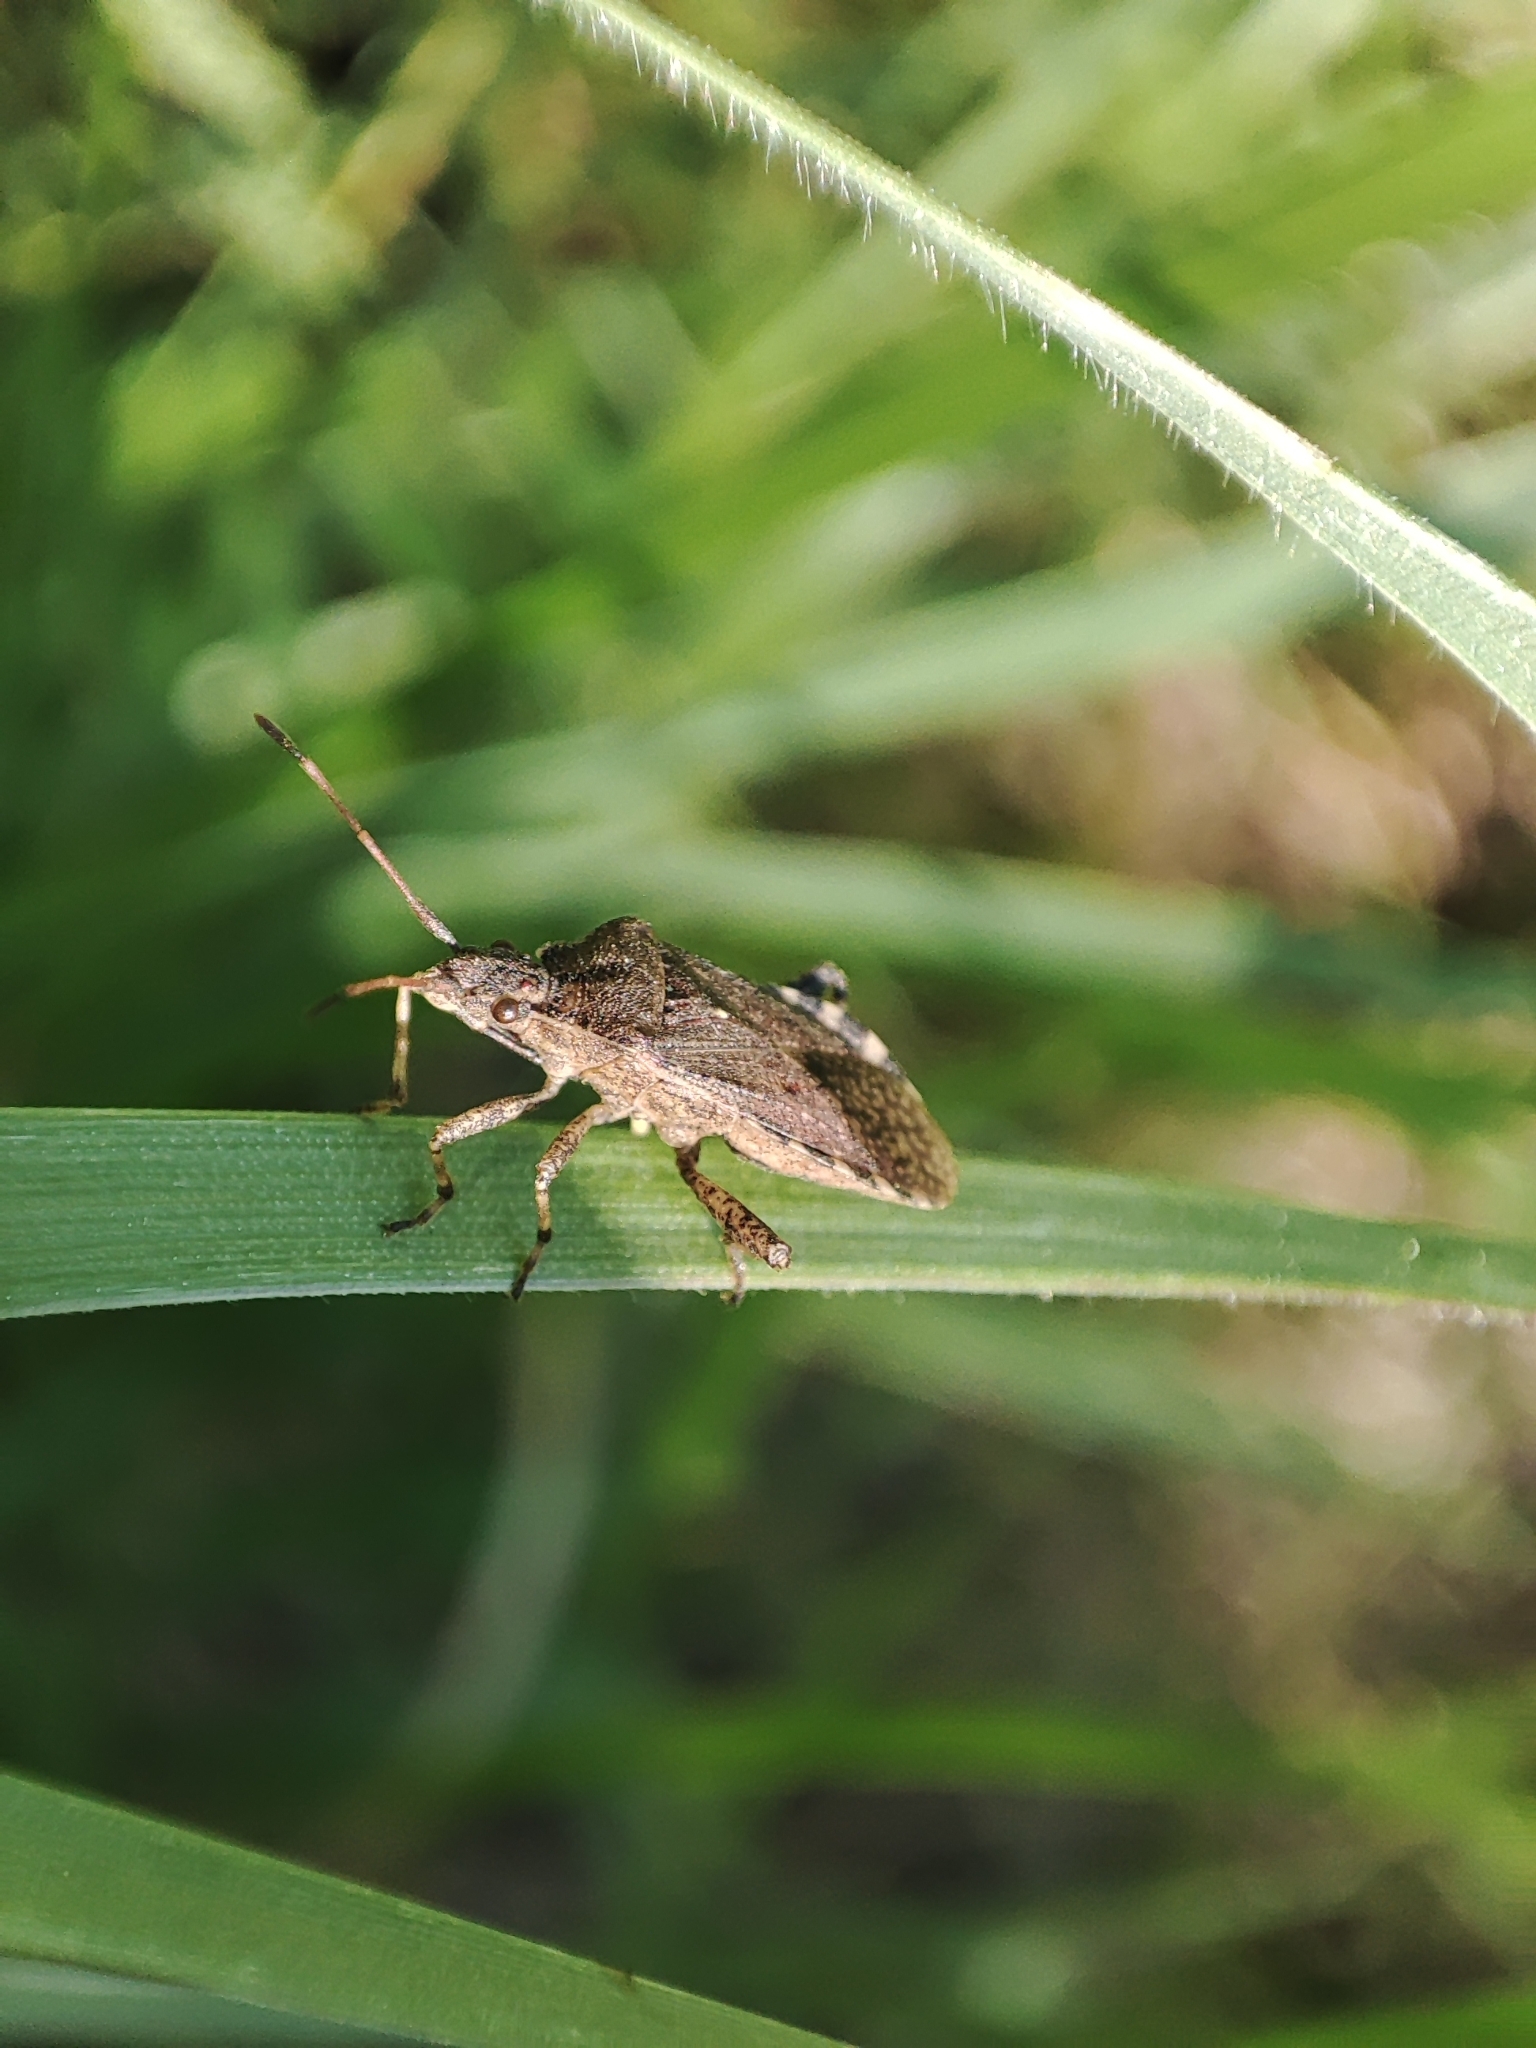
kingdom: Animalia
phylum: Arthropoda
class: Insecta
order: Hemiptera
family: Coreidae
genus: Ceraleptus
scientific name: Ceraleptus gracilicornis
